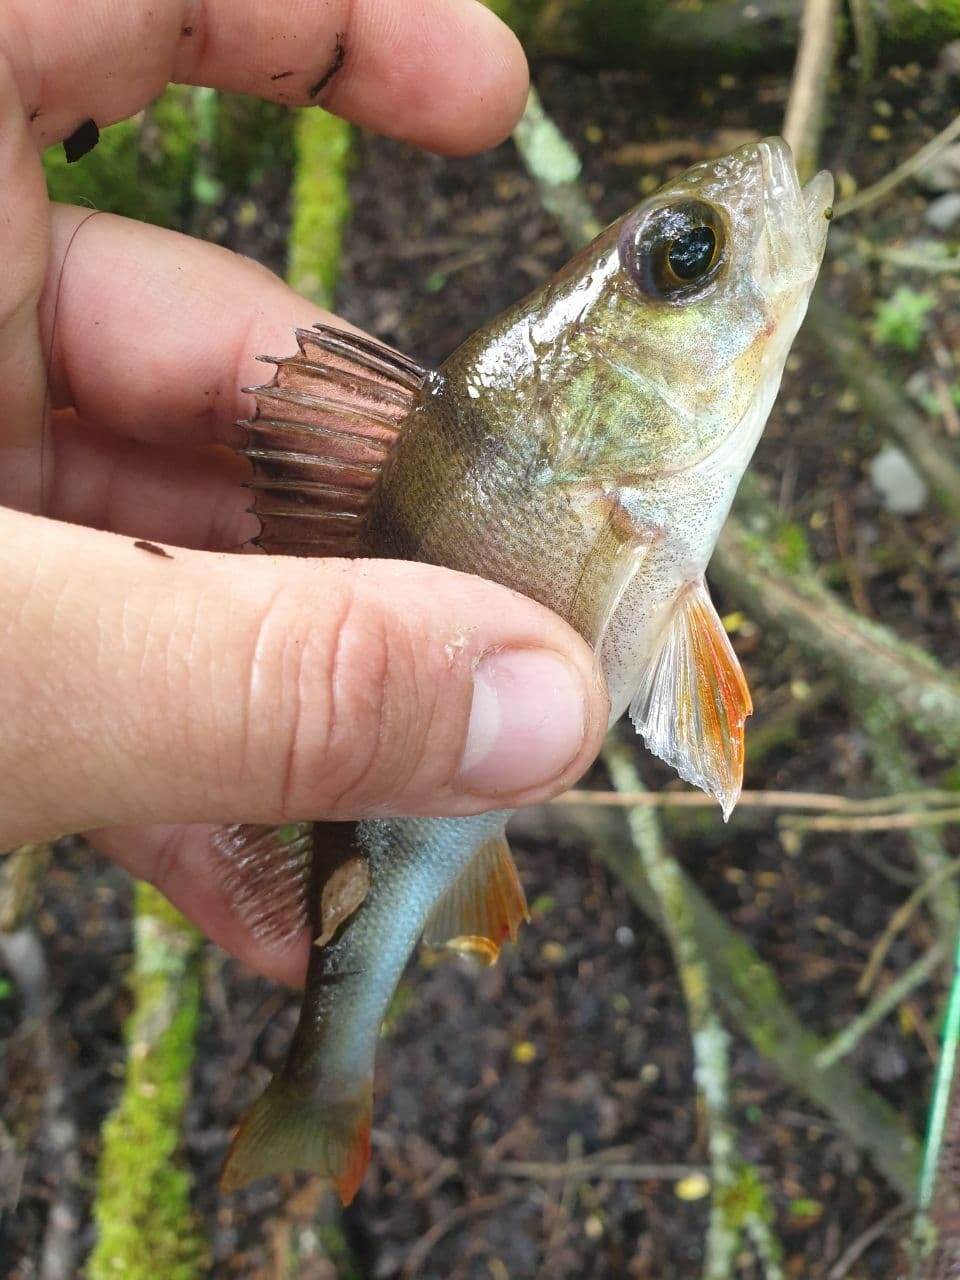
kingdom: Animalia
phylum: Chordata
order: Perciformes
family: Percidae
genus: Perca
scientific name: Perca fluviatilis
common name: Perch
